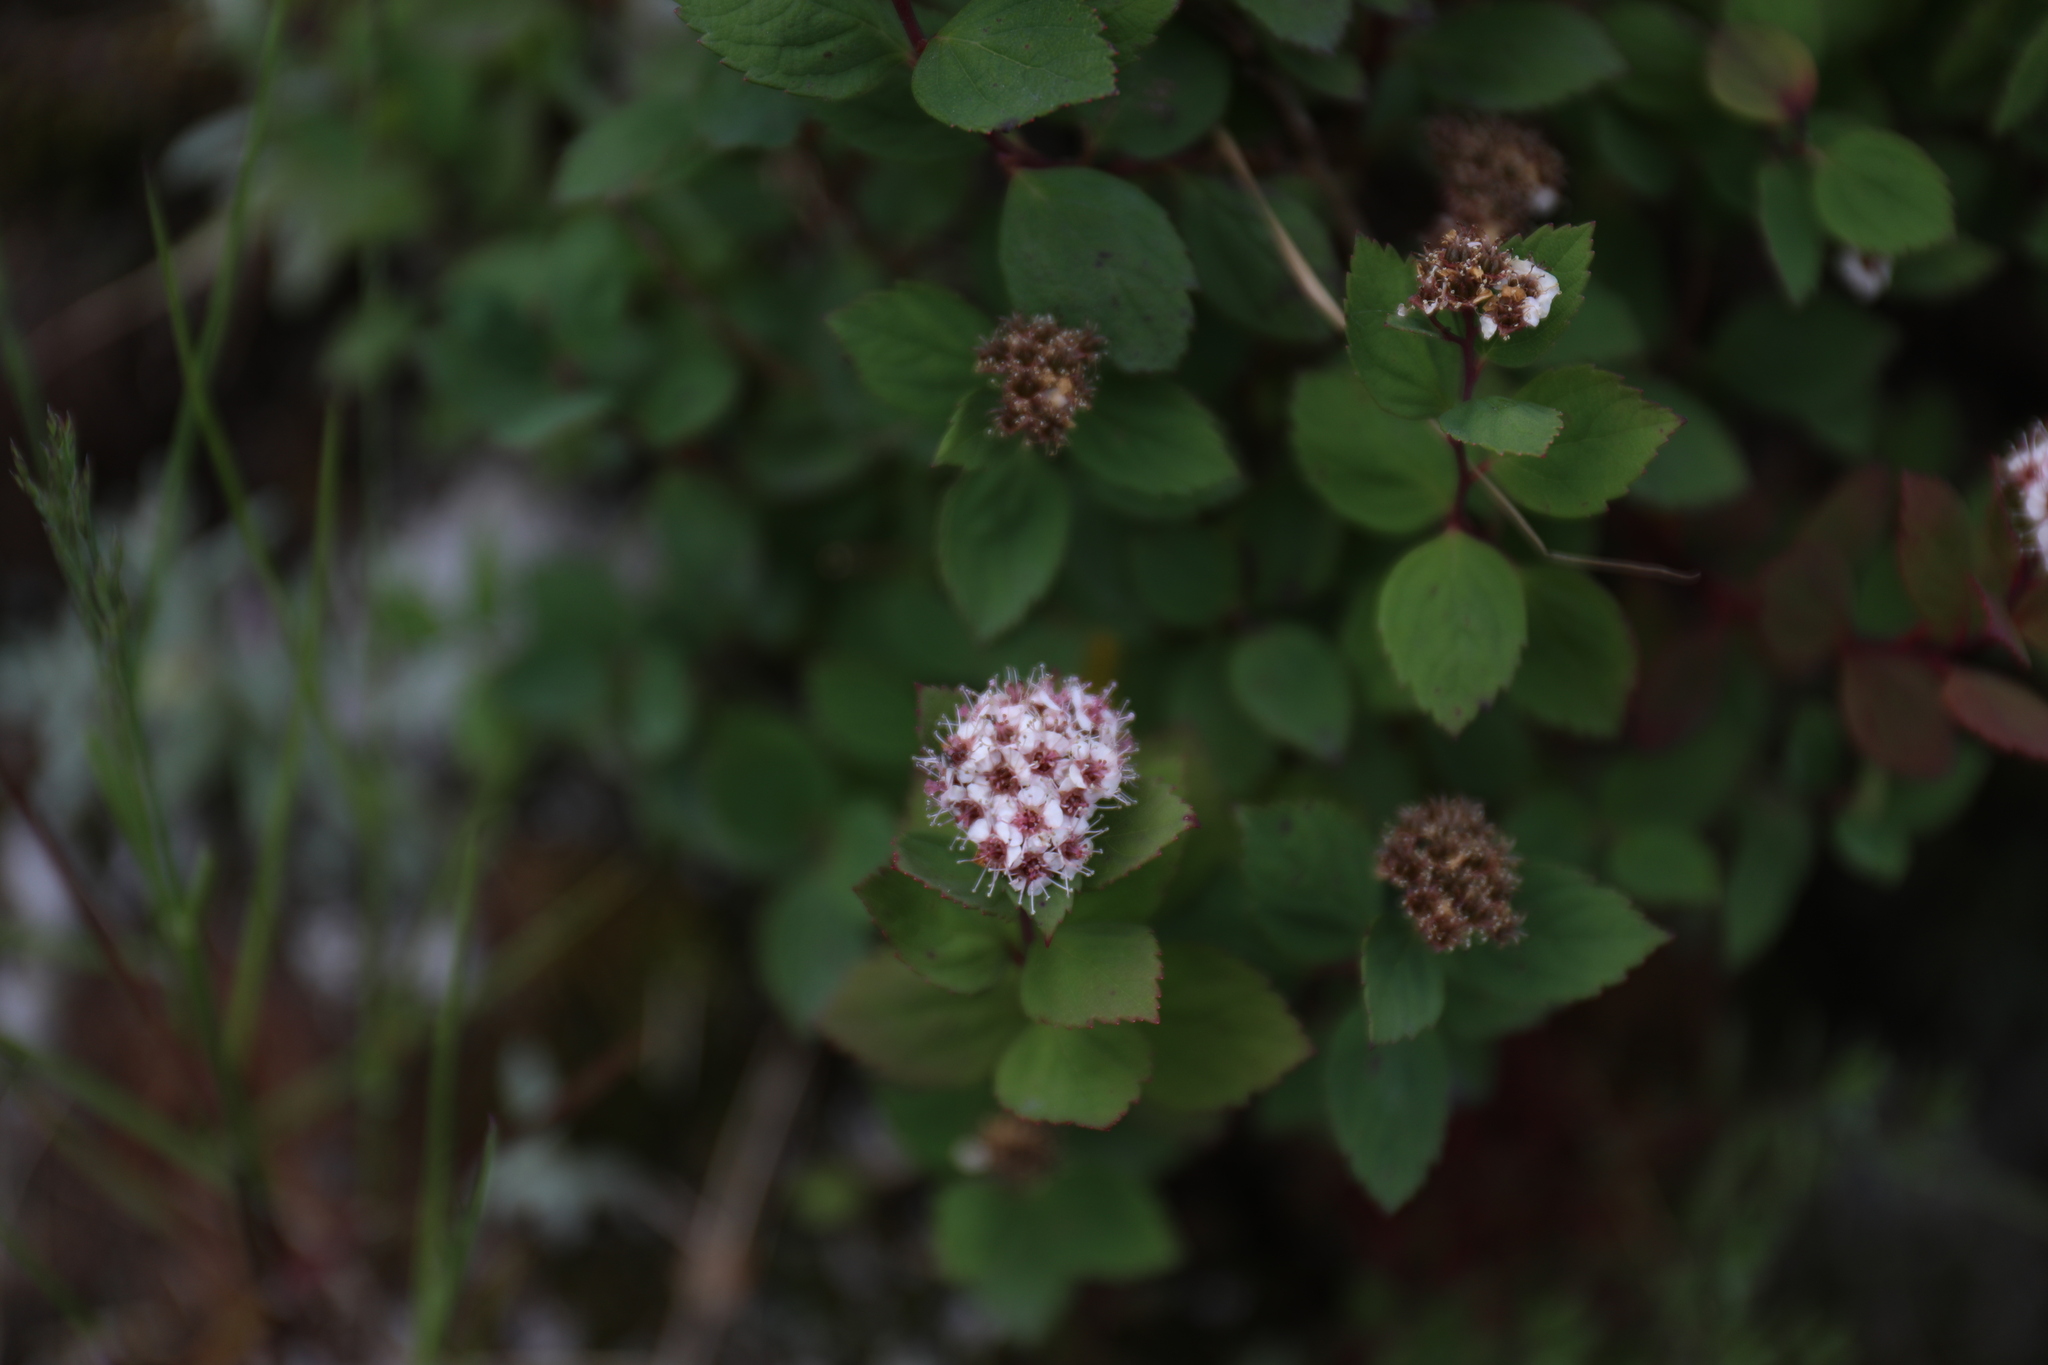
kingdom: Plantae
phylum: Tracheophyta
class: Magnoliopsida
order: Rosales
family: Rosaceae
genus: Spiraea
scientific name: Spiraea morrisonicola
